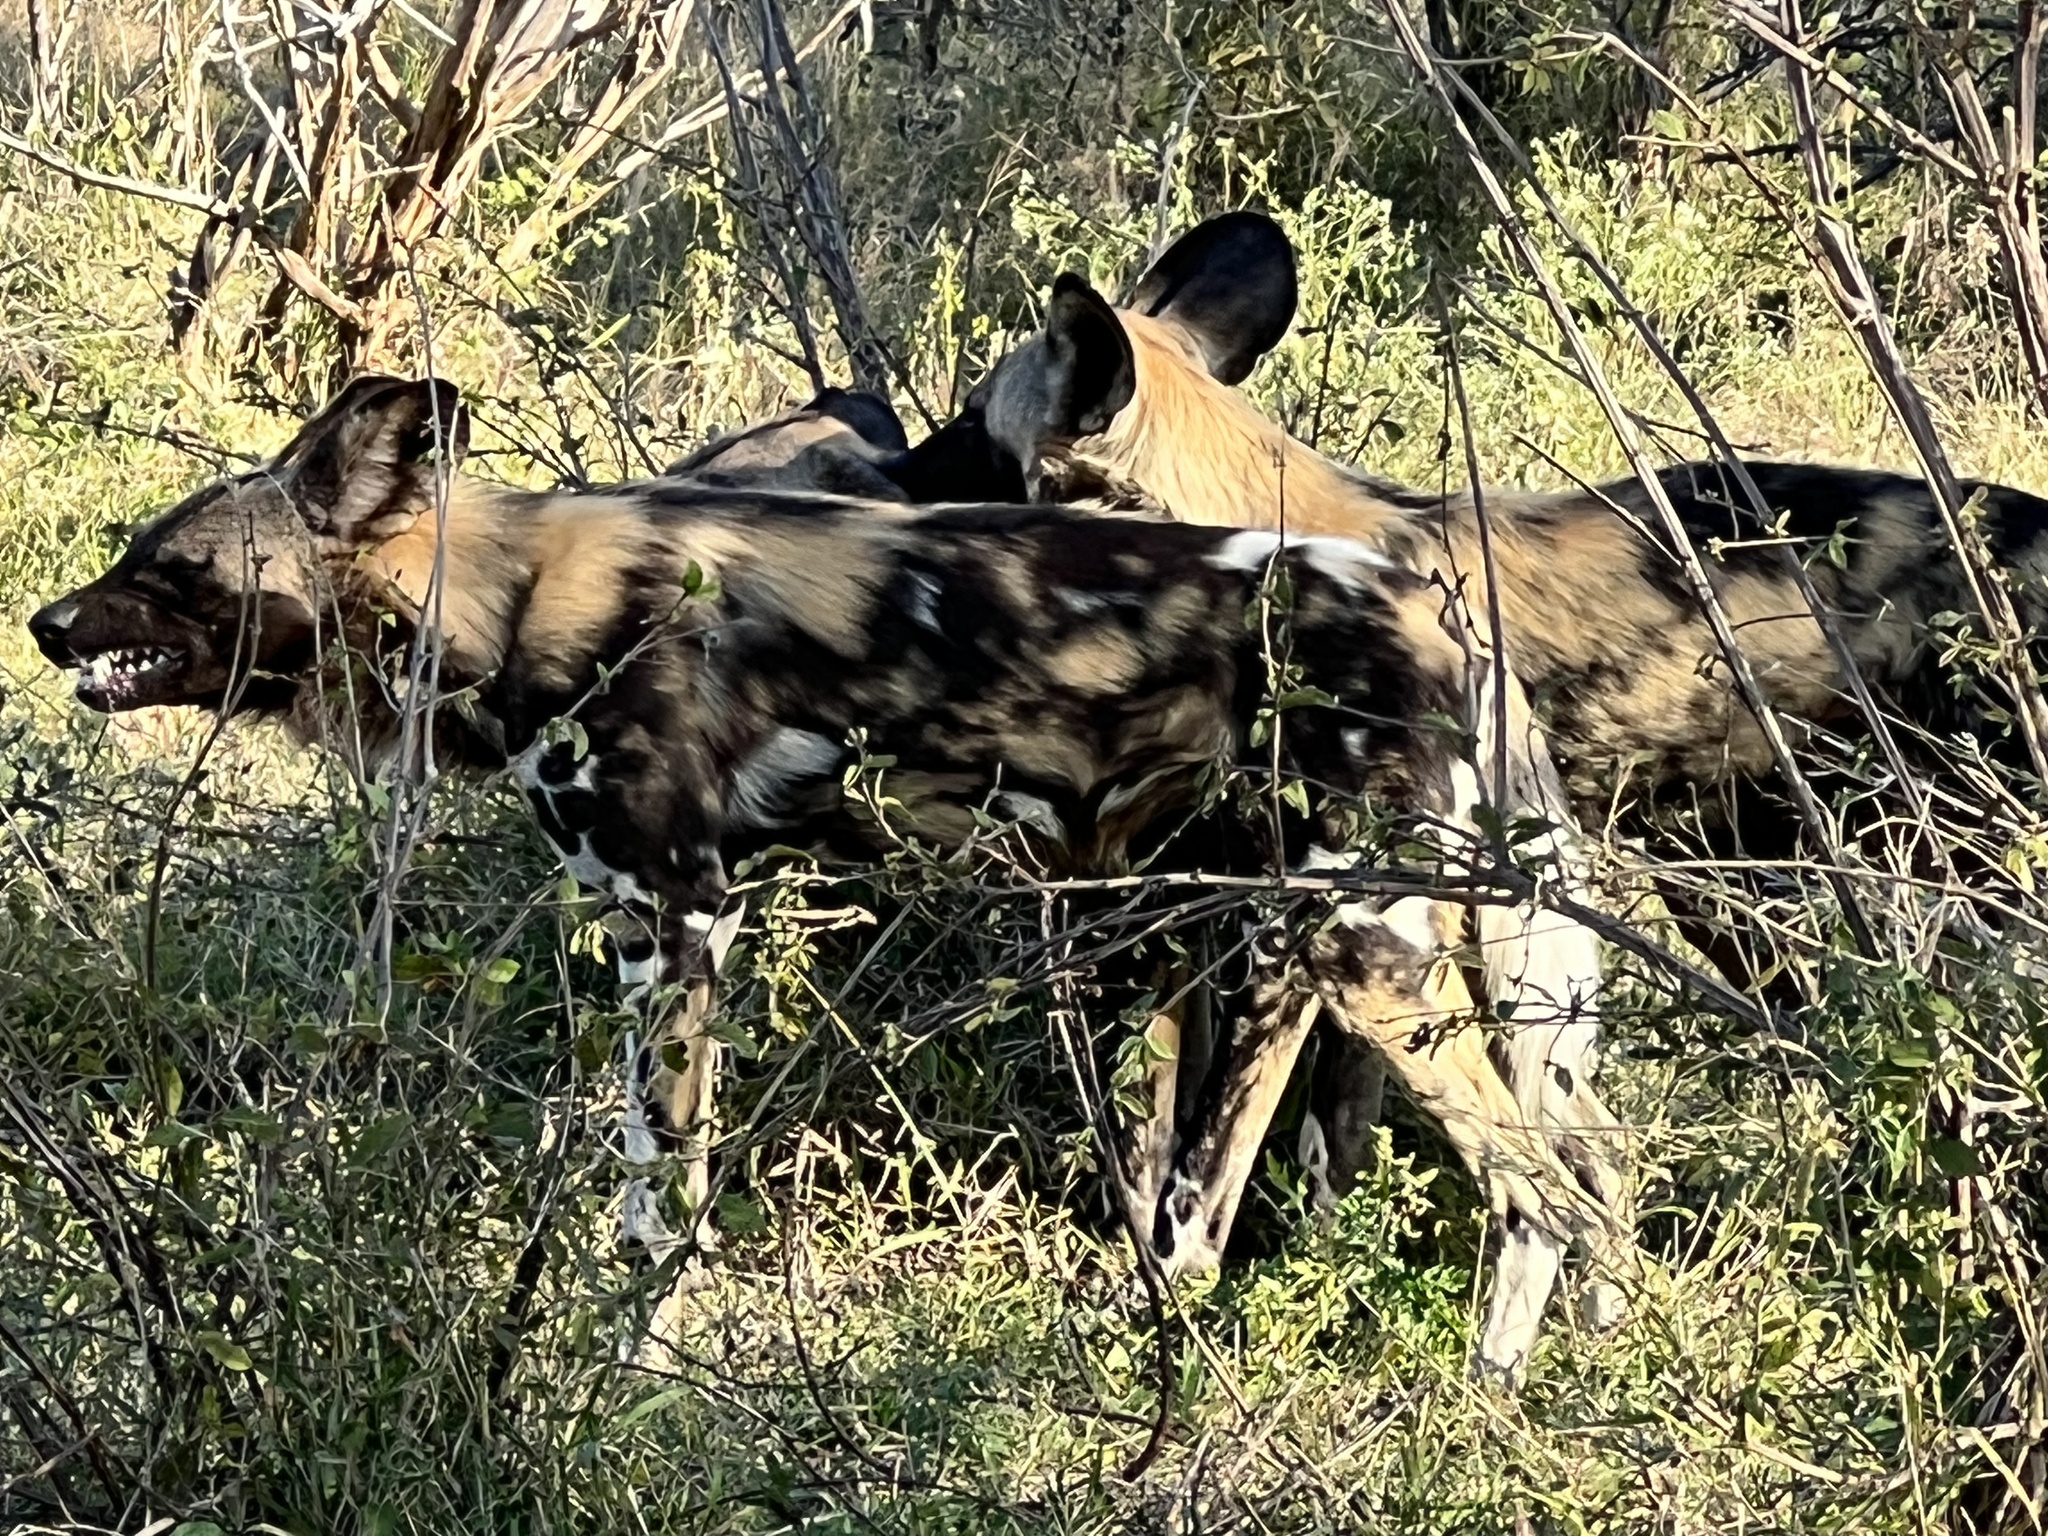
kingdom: Animalia
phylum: Chordata
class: Mammalia
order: Carnivora
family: Canidae
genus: Lycaon
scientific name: Lycaon pictus
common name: African wild dog
